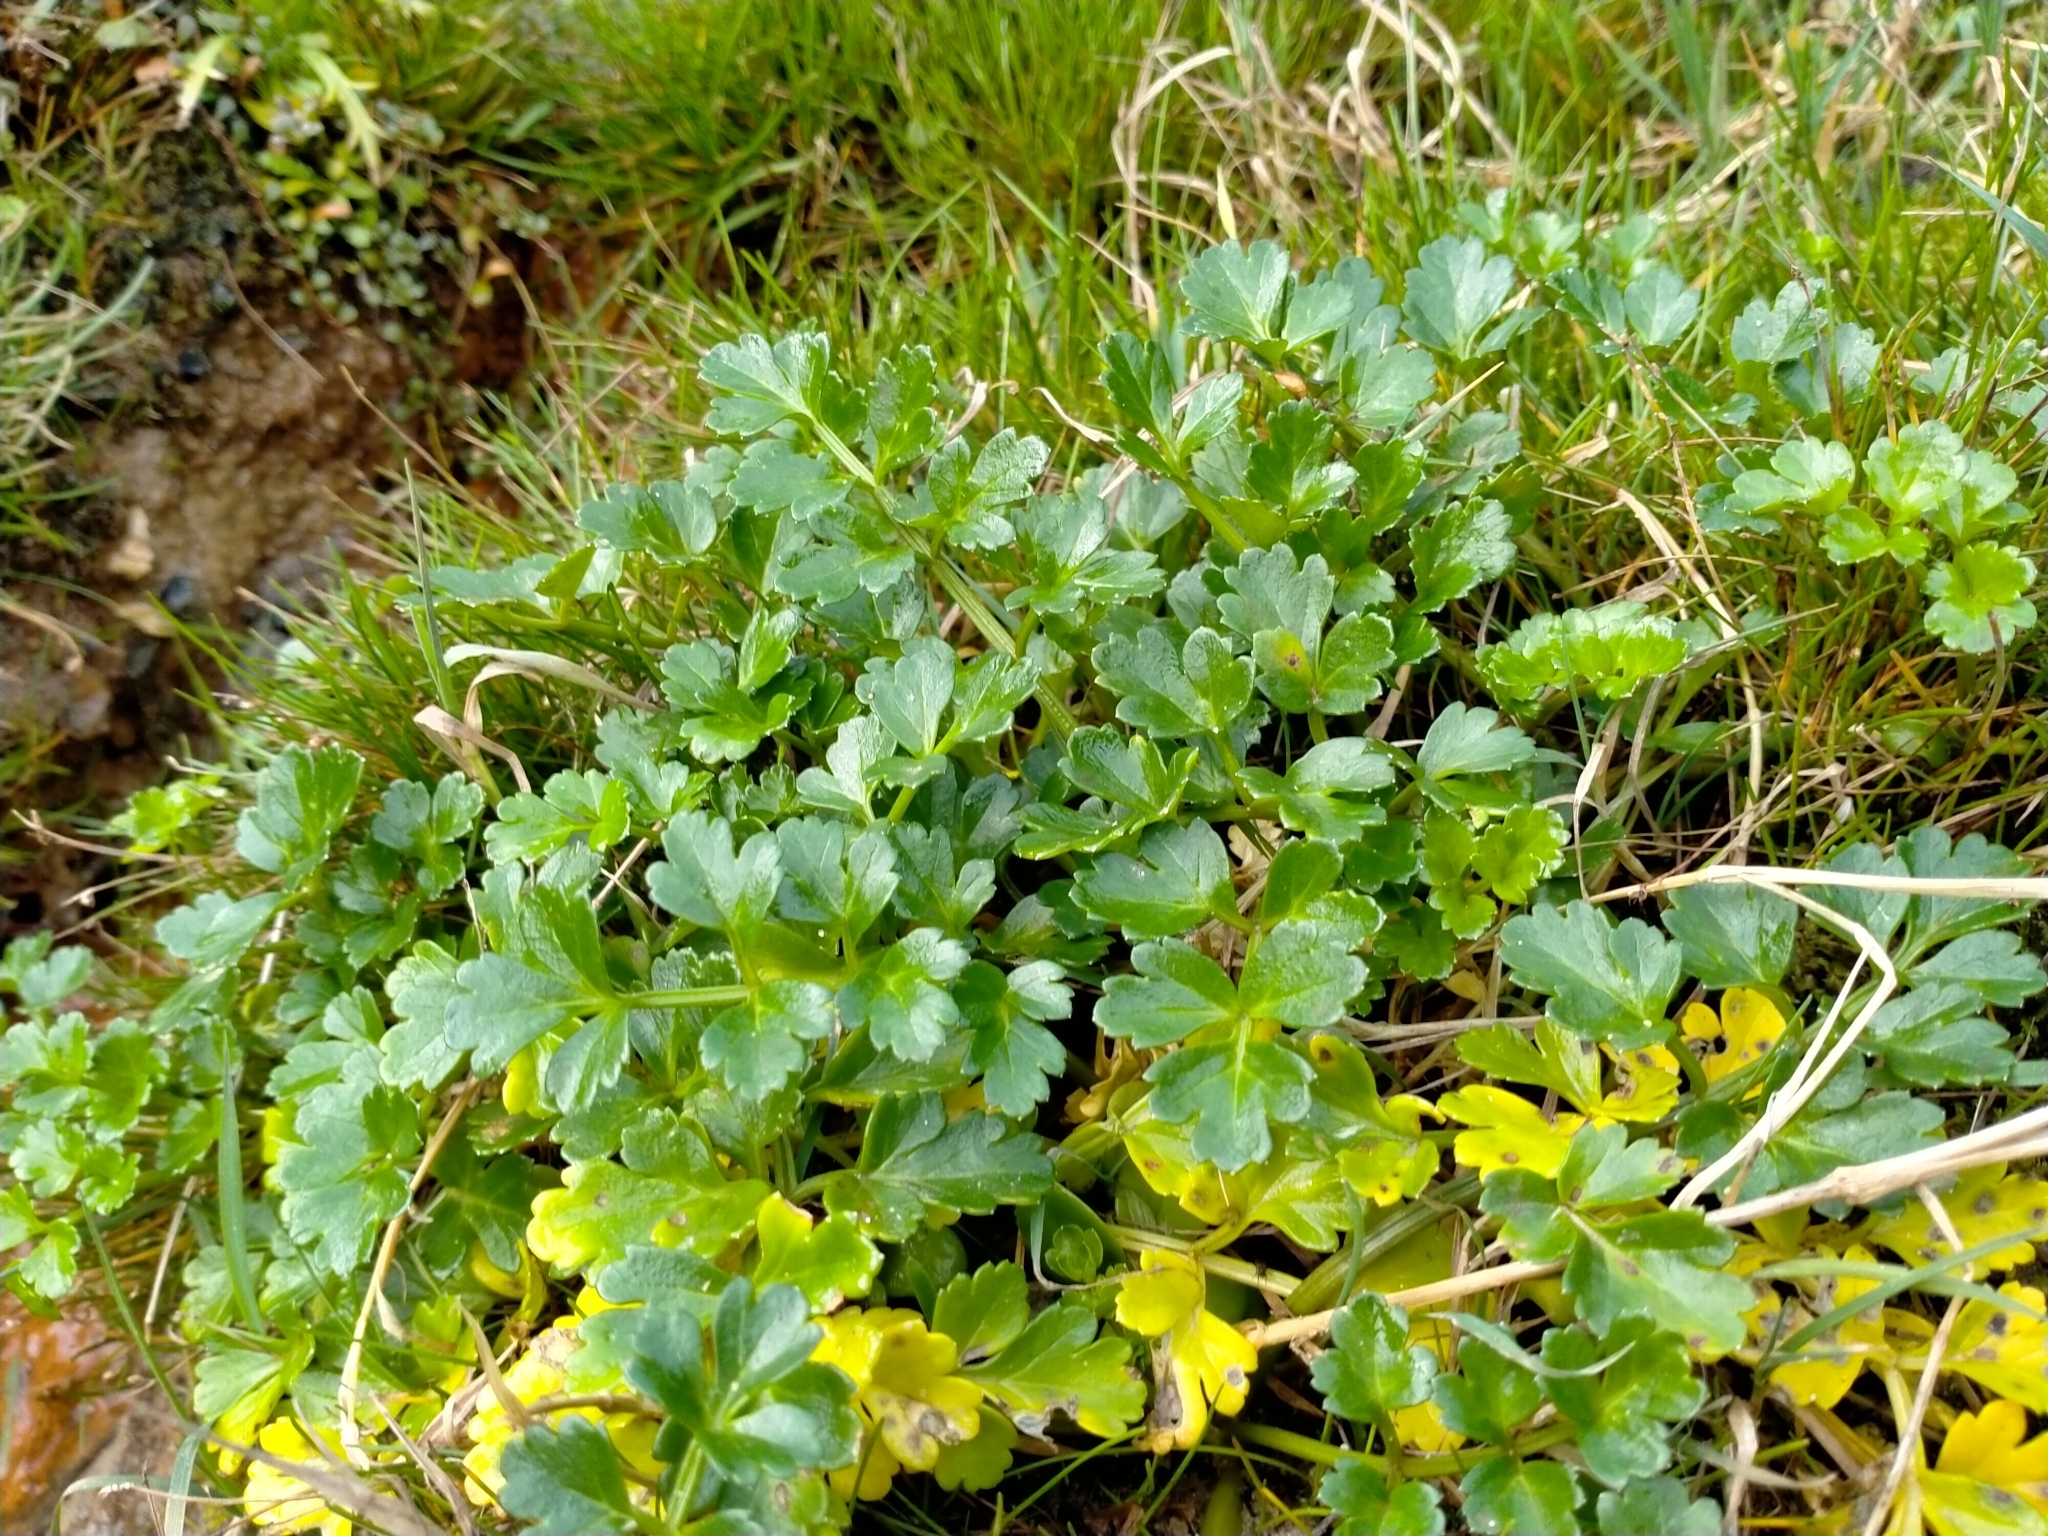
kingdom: Plantae
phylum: Tracheophyta
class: Magnoliopsida
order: Apiales
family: Apiaceae
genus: Apium
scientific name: Apium prostratum
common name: Prostrate marshwort
